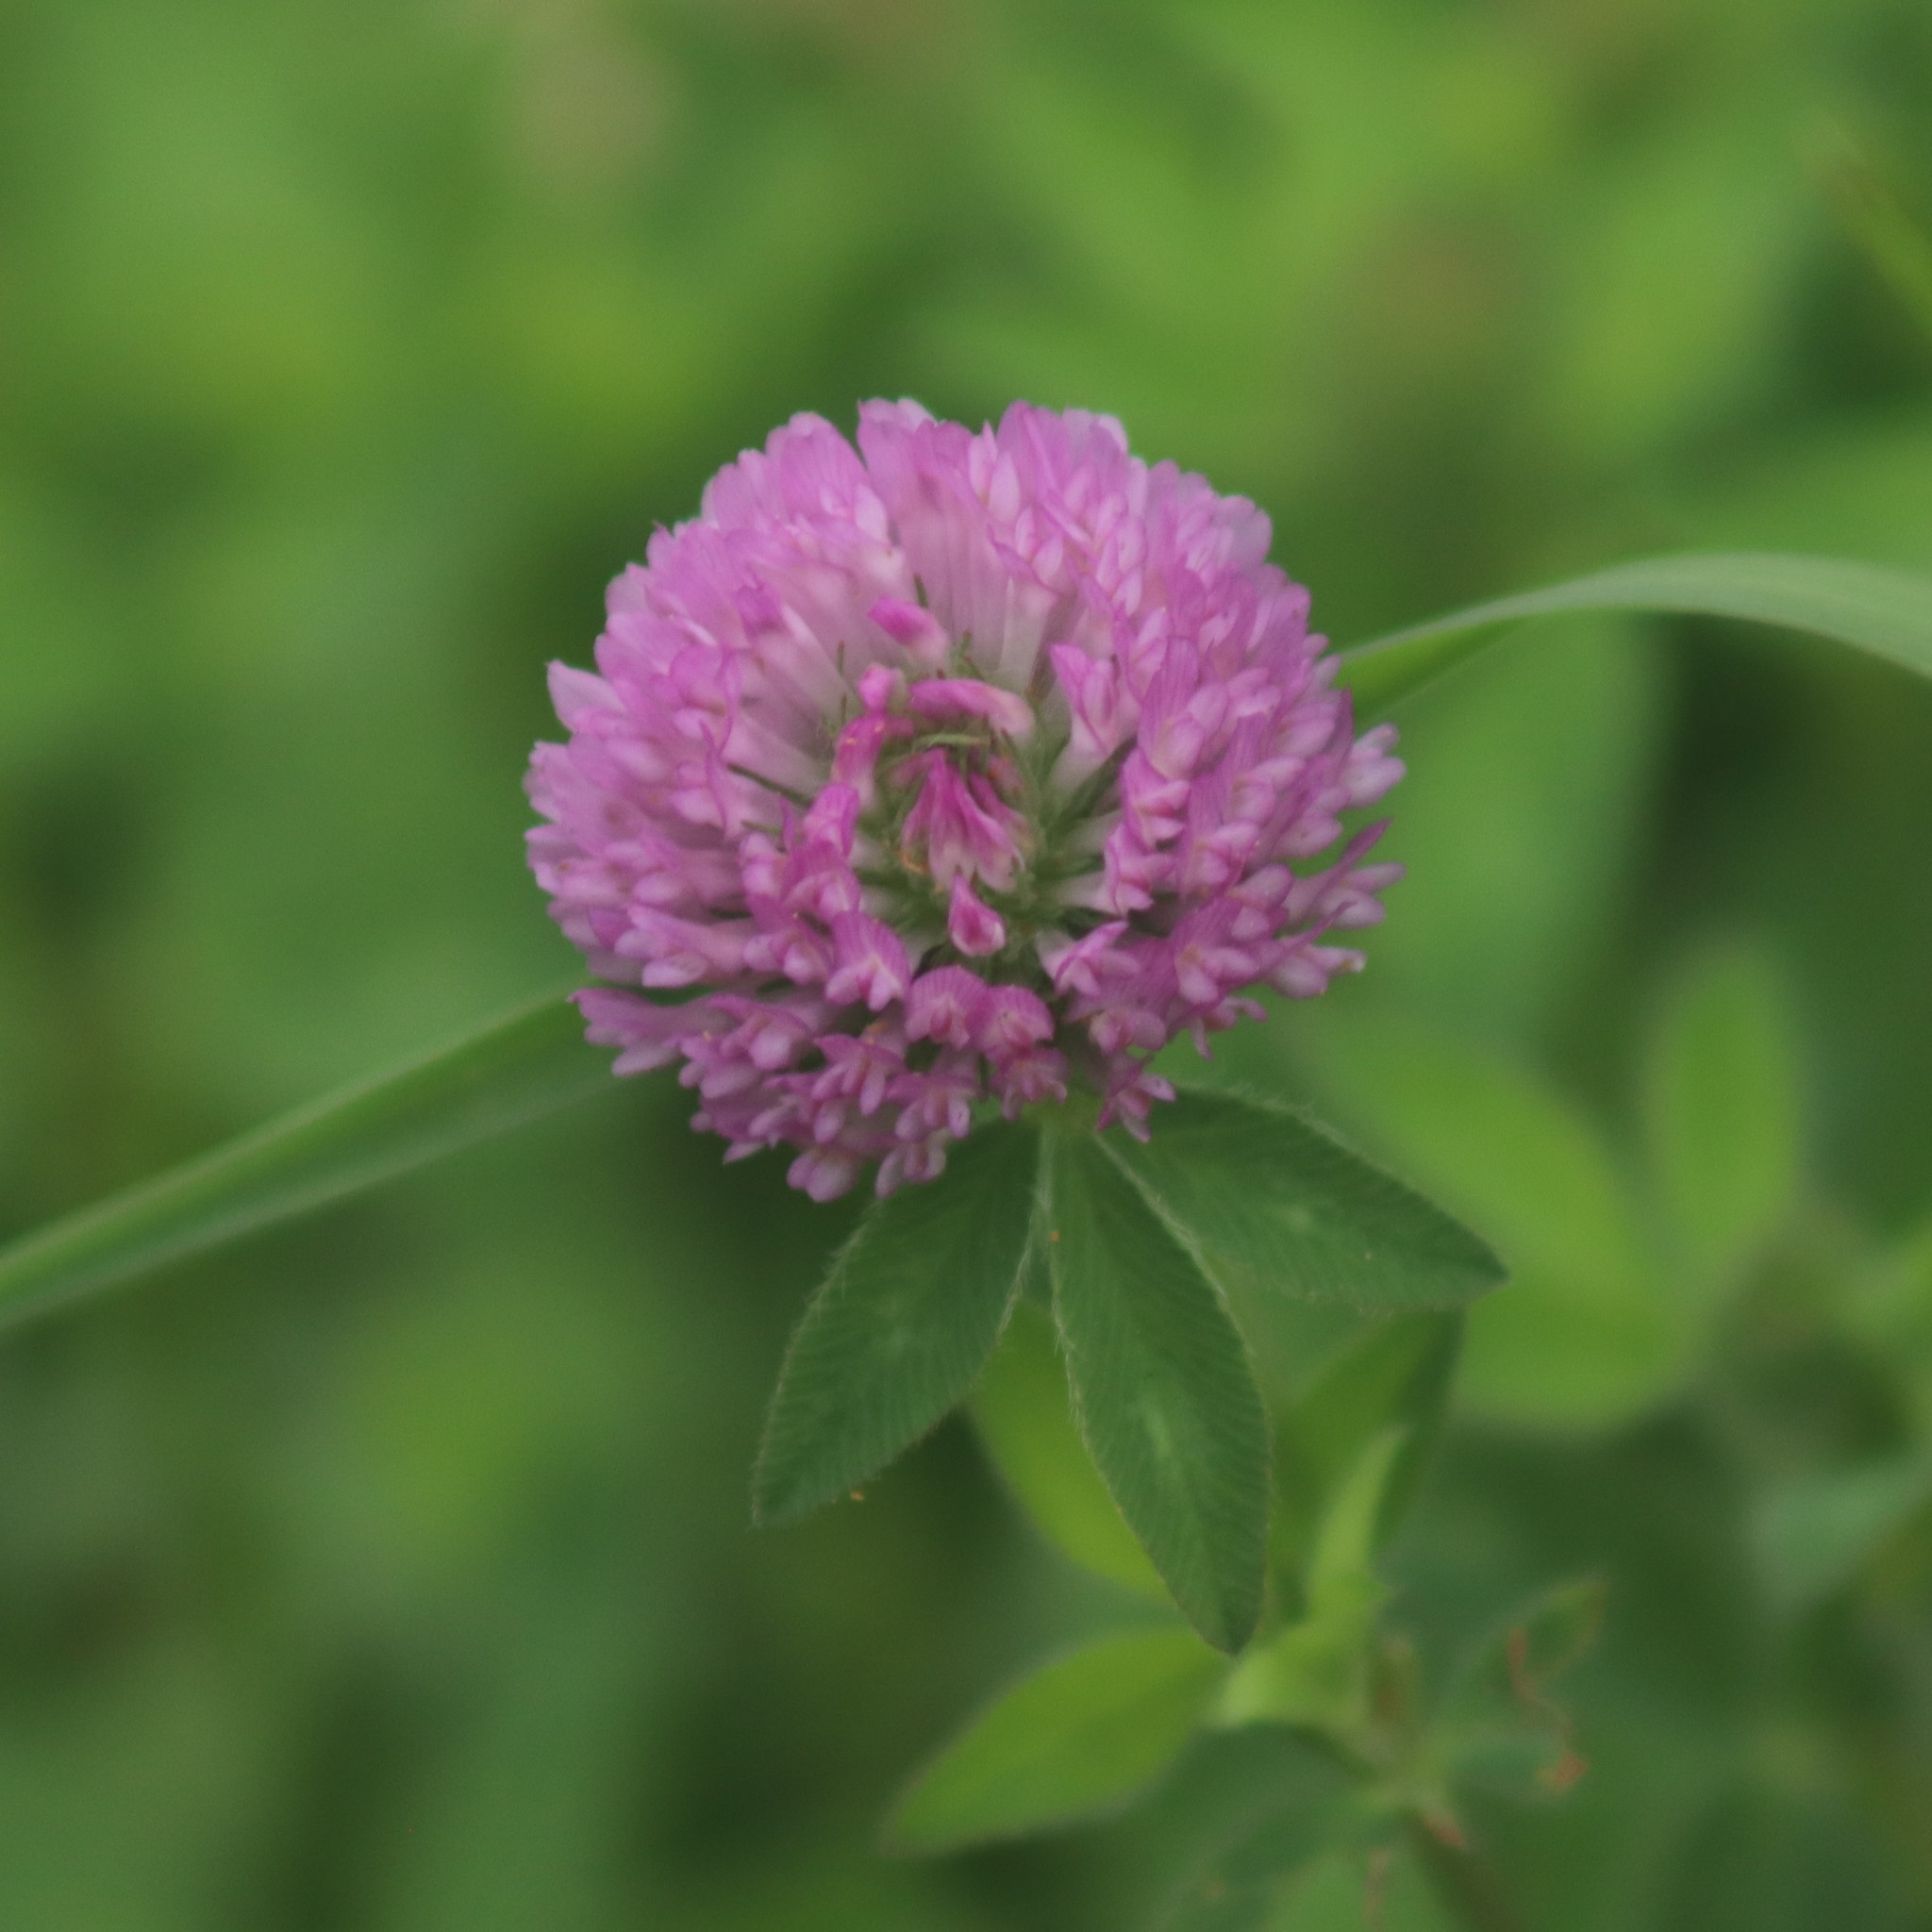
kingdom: Plantae
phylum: Tracheophyta
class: Magnoliopsida
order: Fabales
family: Fabaceae
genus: Trifolium
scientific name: Trifolium pratense
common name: Red clover
